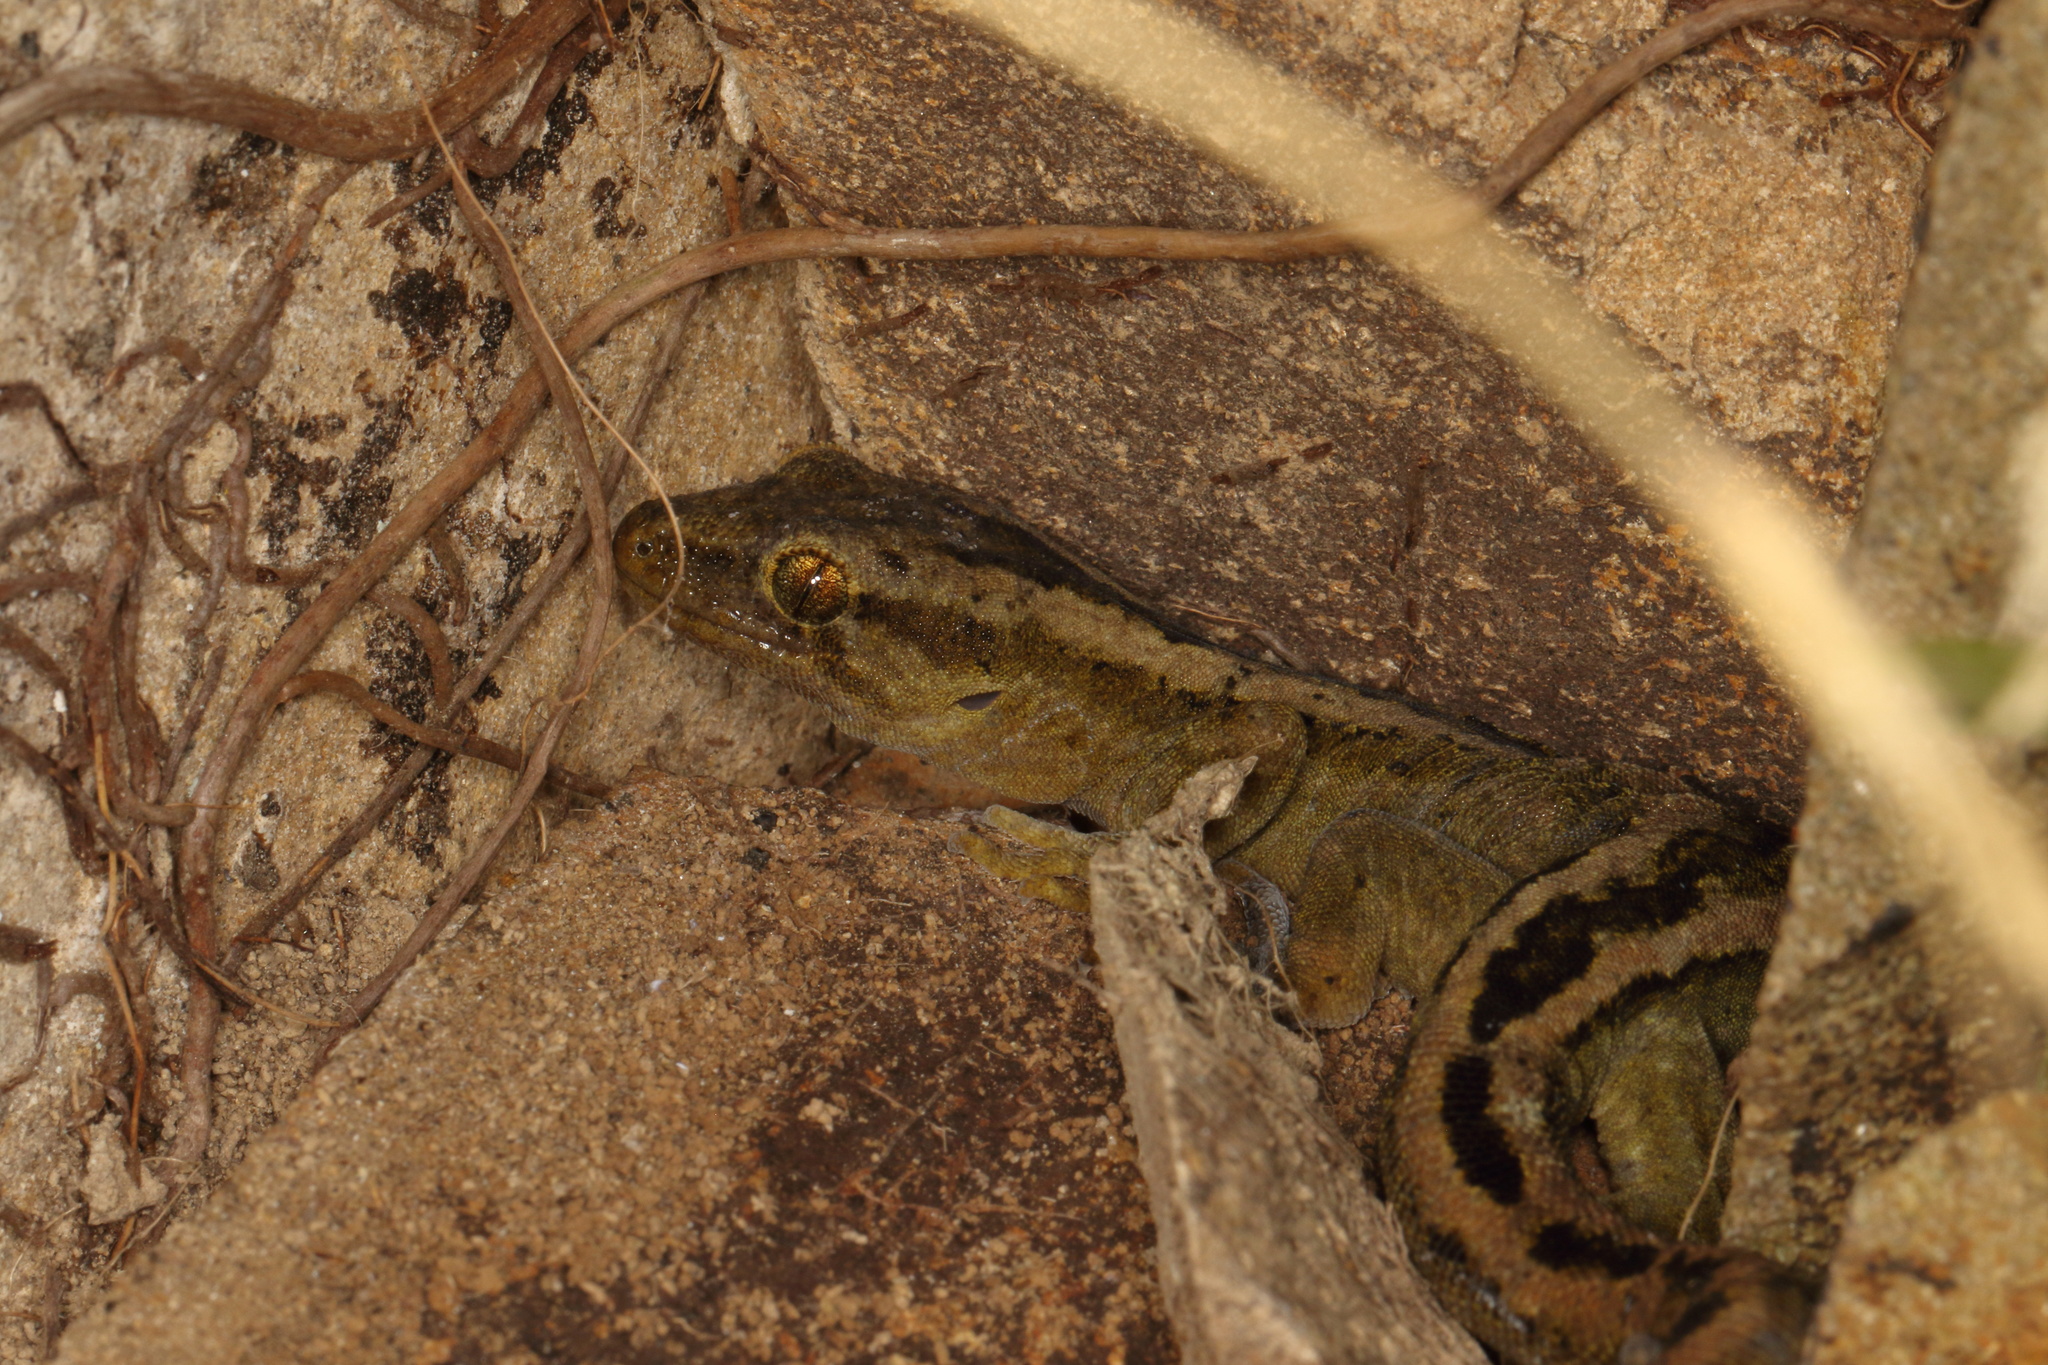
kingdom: Animalia
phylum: Chordata
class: Squamata
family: Diplodactylidae
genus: Woodworthia
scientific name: Woodworthia maculata
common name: Raukawa gecko
